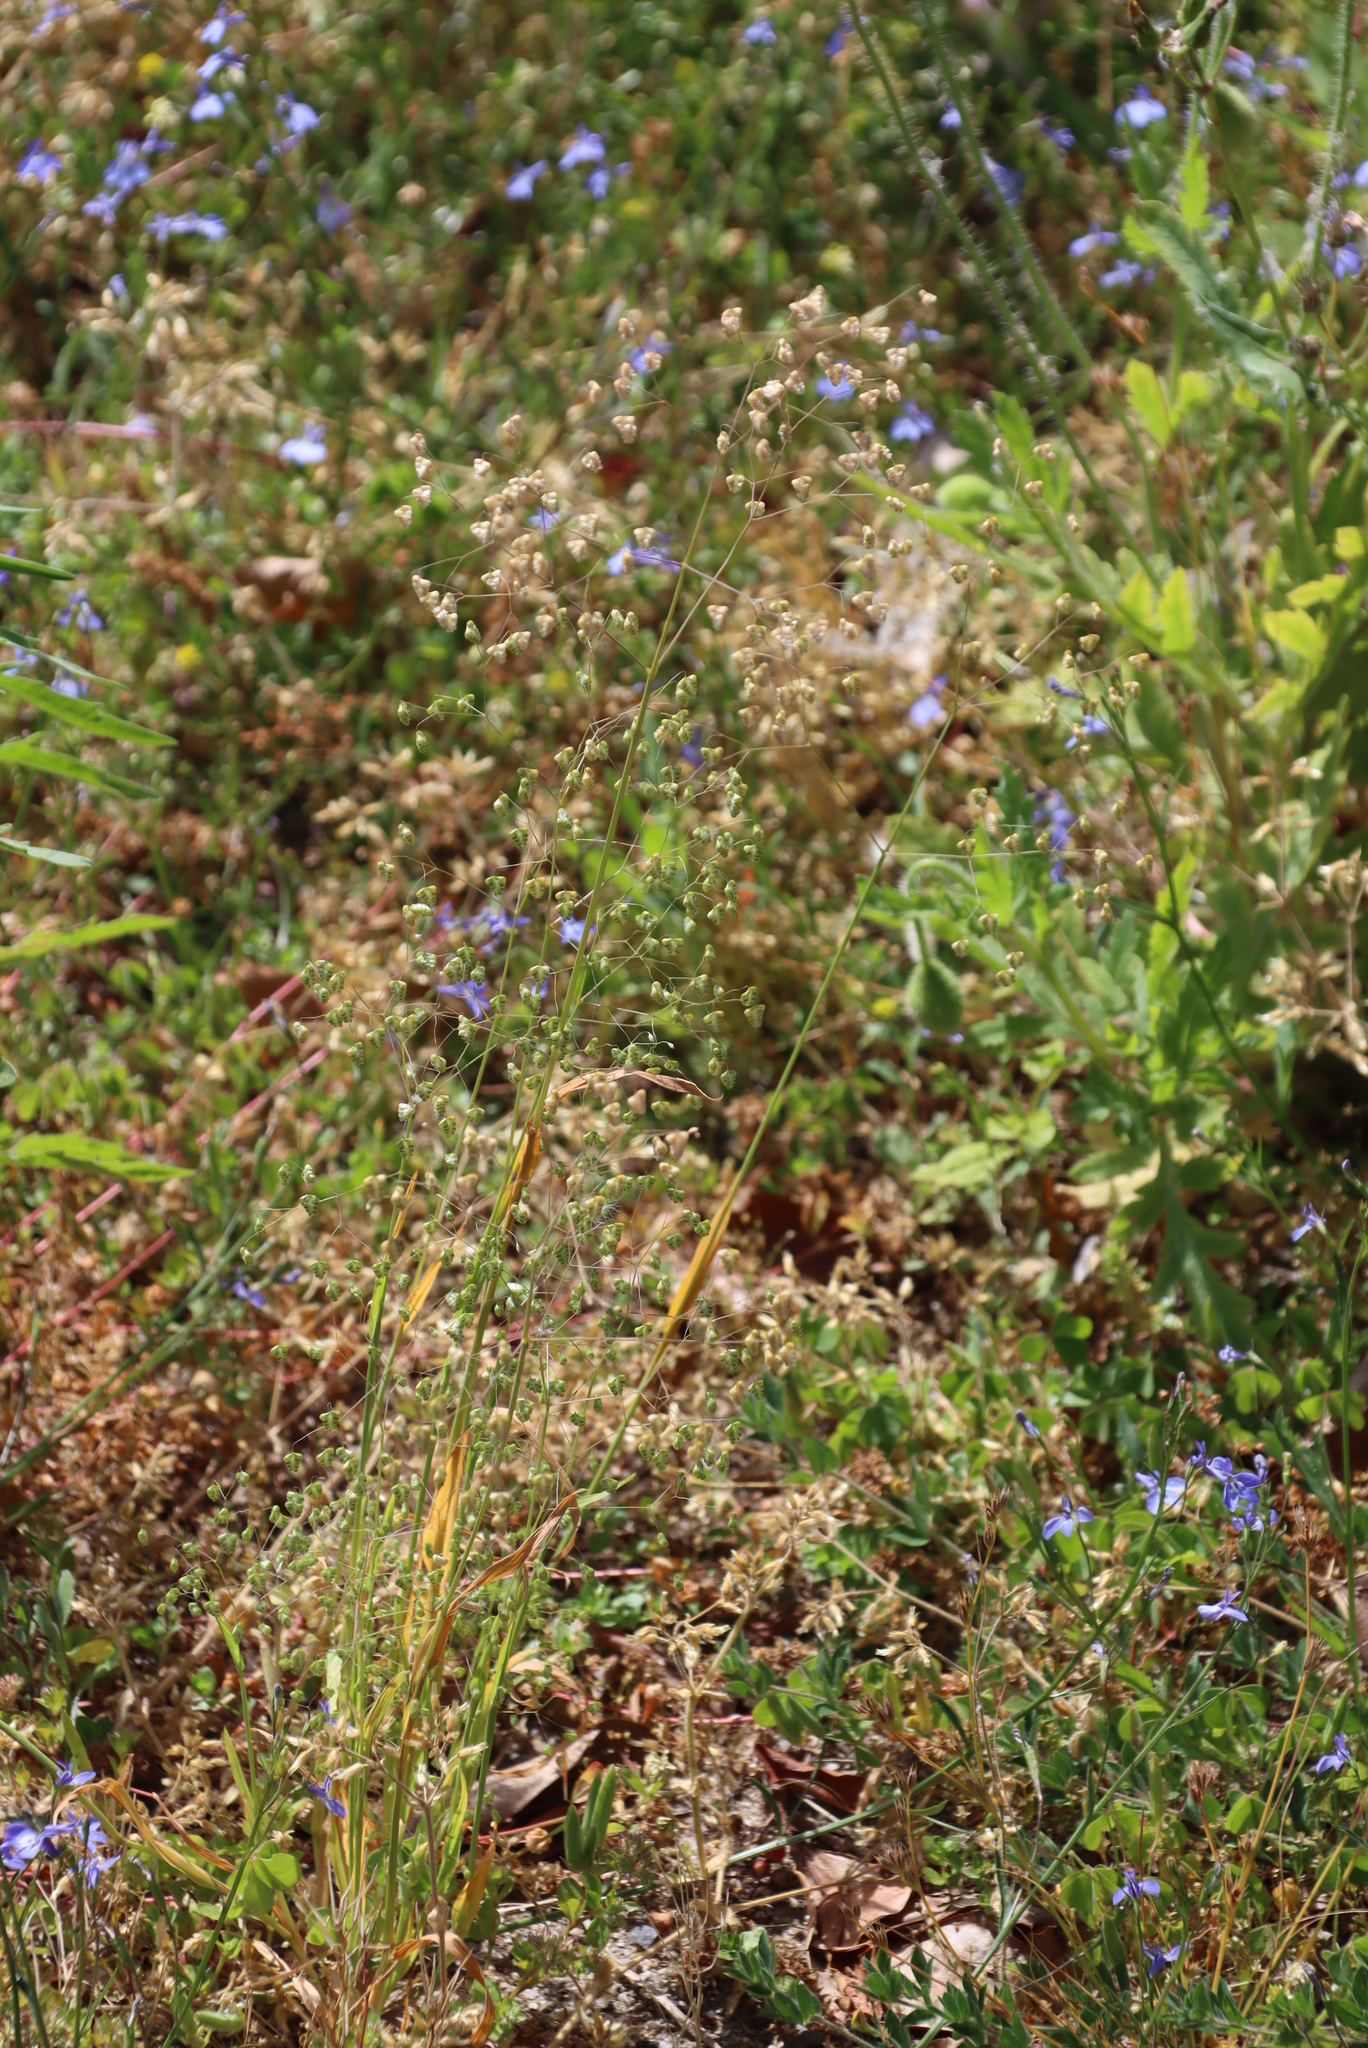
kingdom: Plantae
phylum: Tracheophyta
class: Liliopsida
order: Poales
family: Poaceae
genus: Briza
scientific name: Briza minor
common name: Lesser quaking-grass
